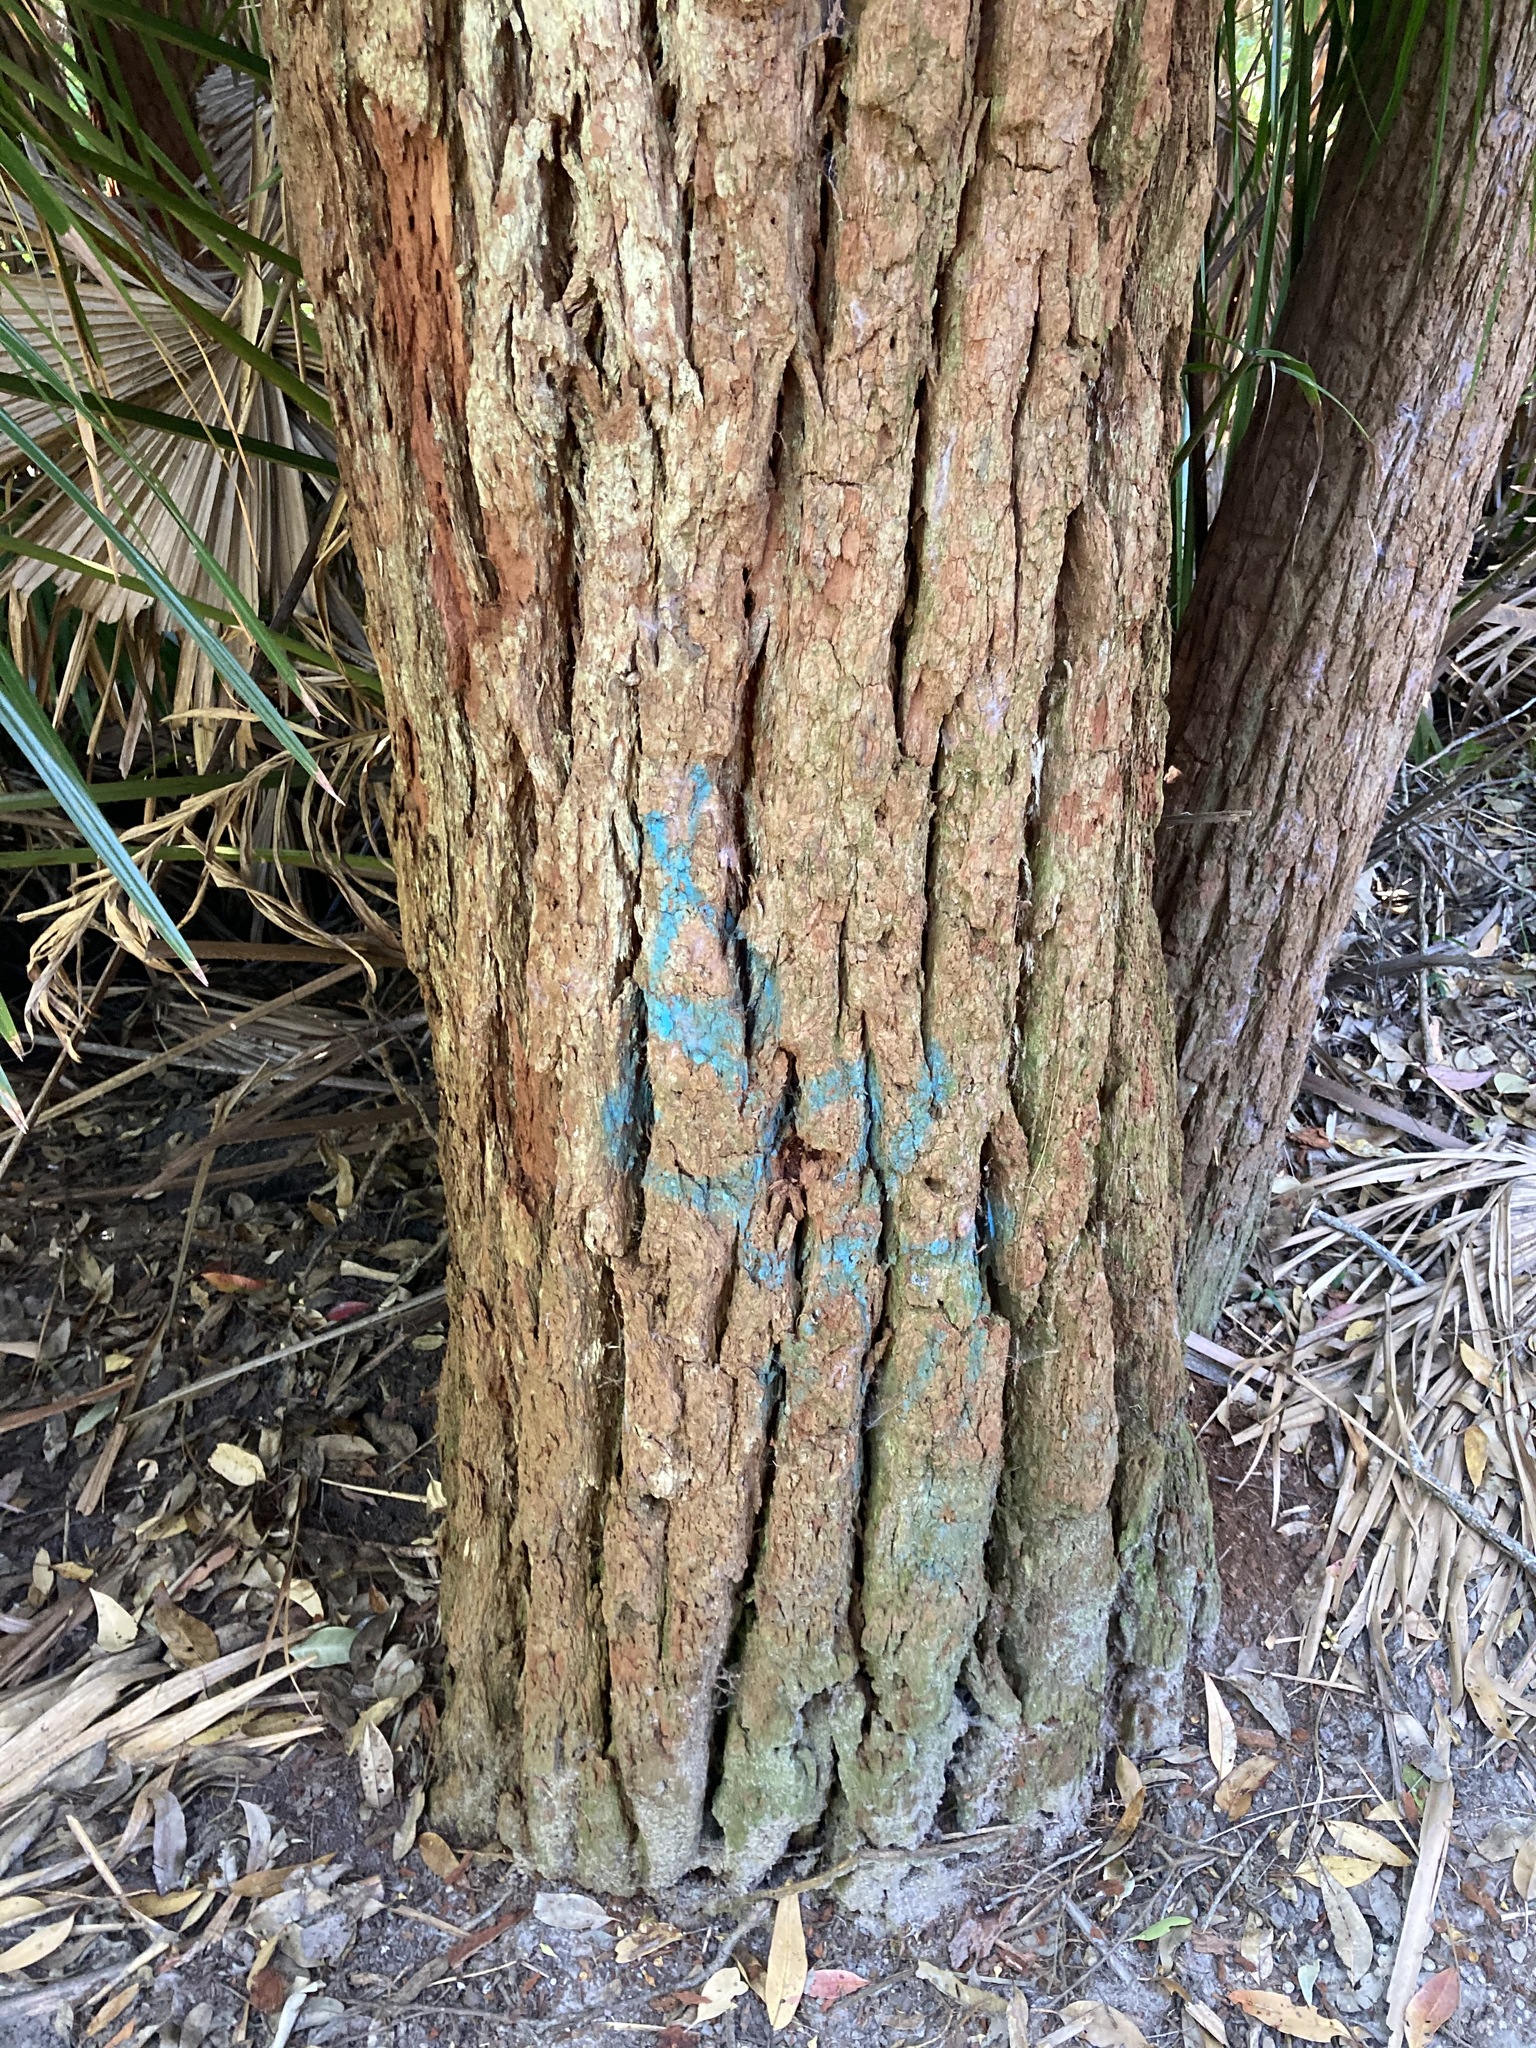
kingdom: Plantae
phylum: Tracheophyta
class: Magnoliopsida
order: Myrtales
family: Myrtaceae
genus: Eucalyptus
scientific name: Eucalyptus robusta
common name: Swampmahogany
